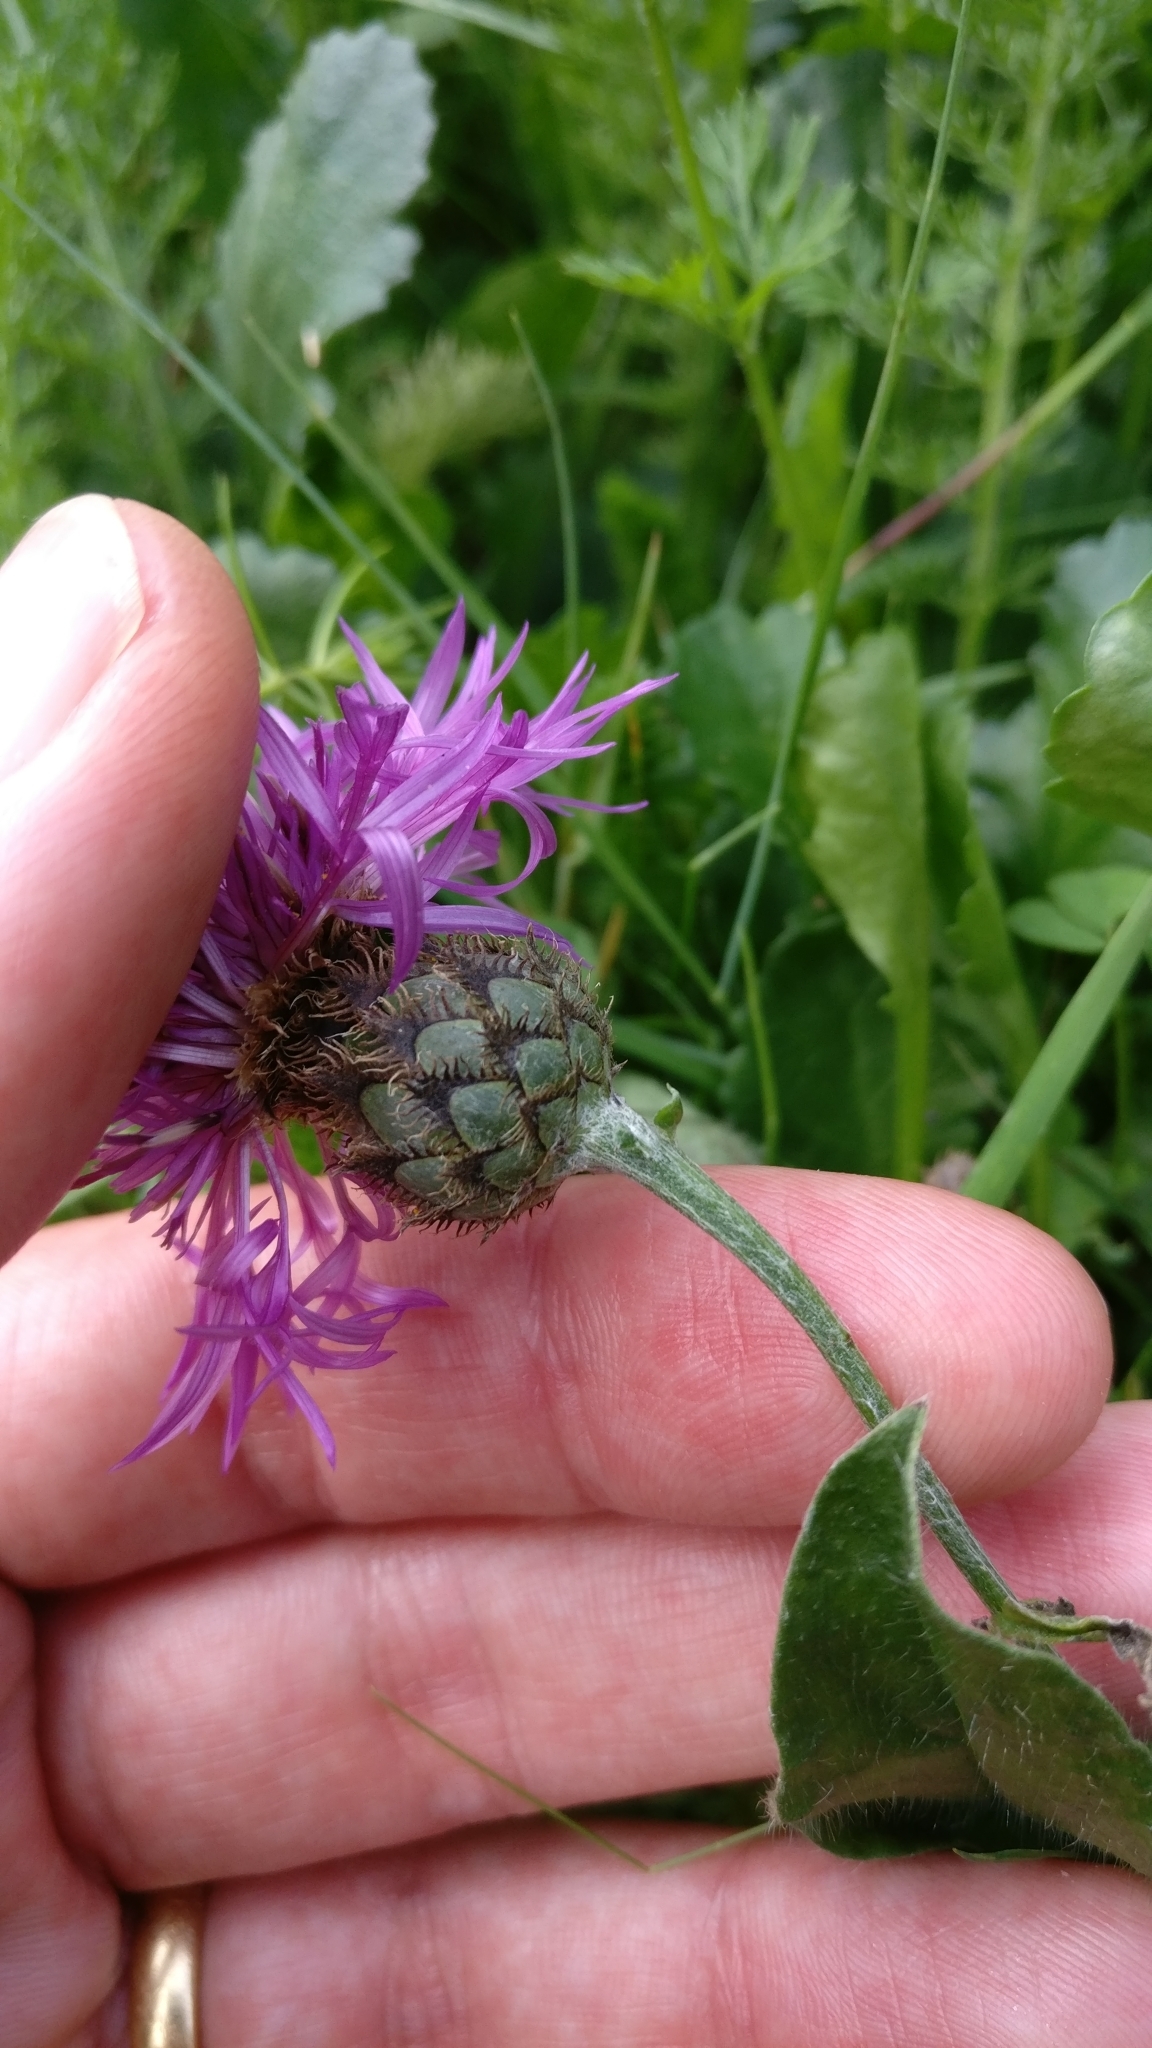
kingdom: Plantae
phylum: Tracheophyta
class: Magnoliopsida
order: Asterales
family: Asteraceae
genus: Centaurea
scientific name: Centaurea scabiosa
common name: Greater knapweed
